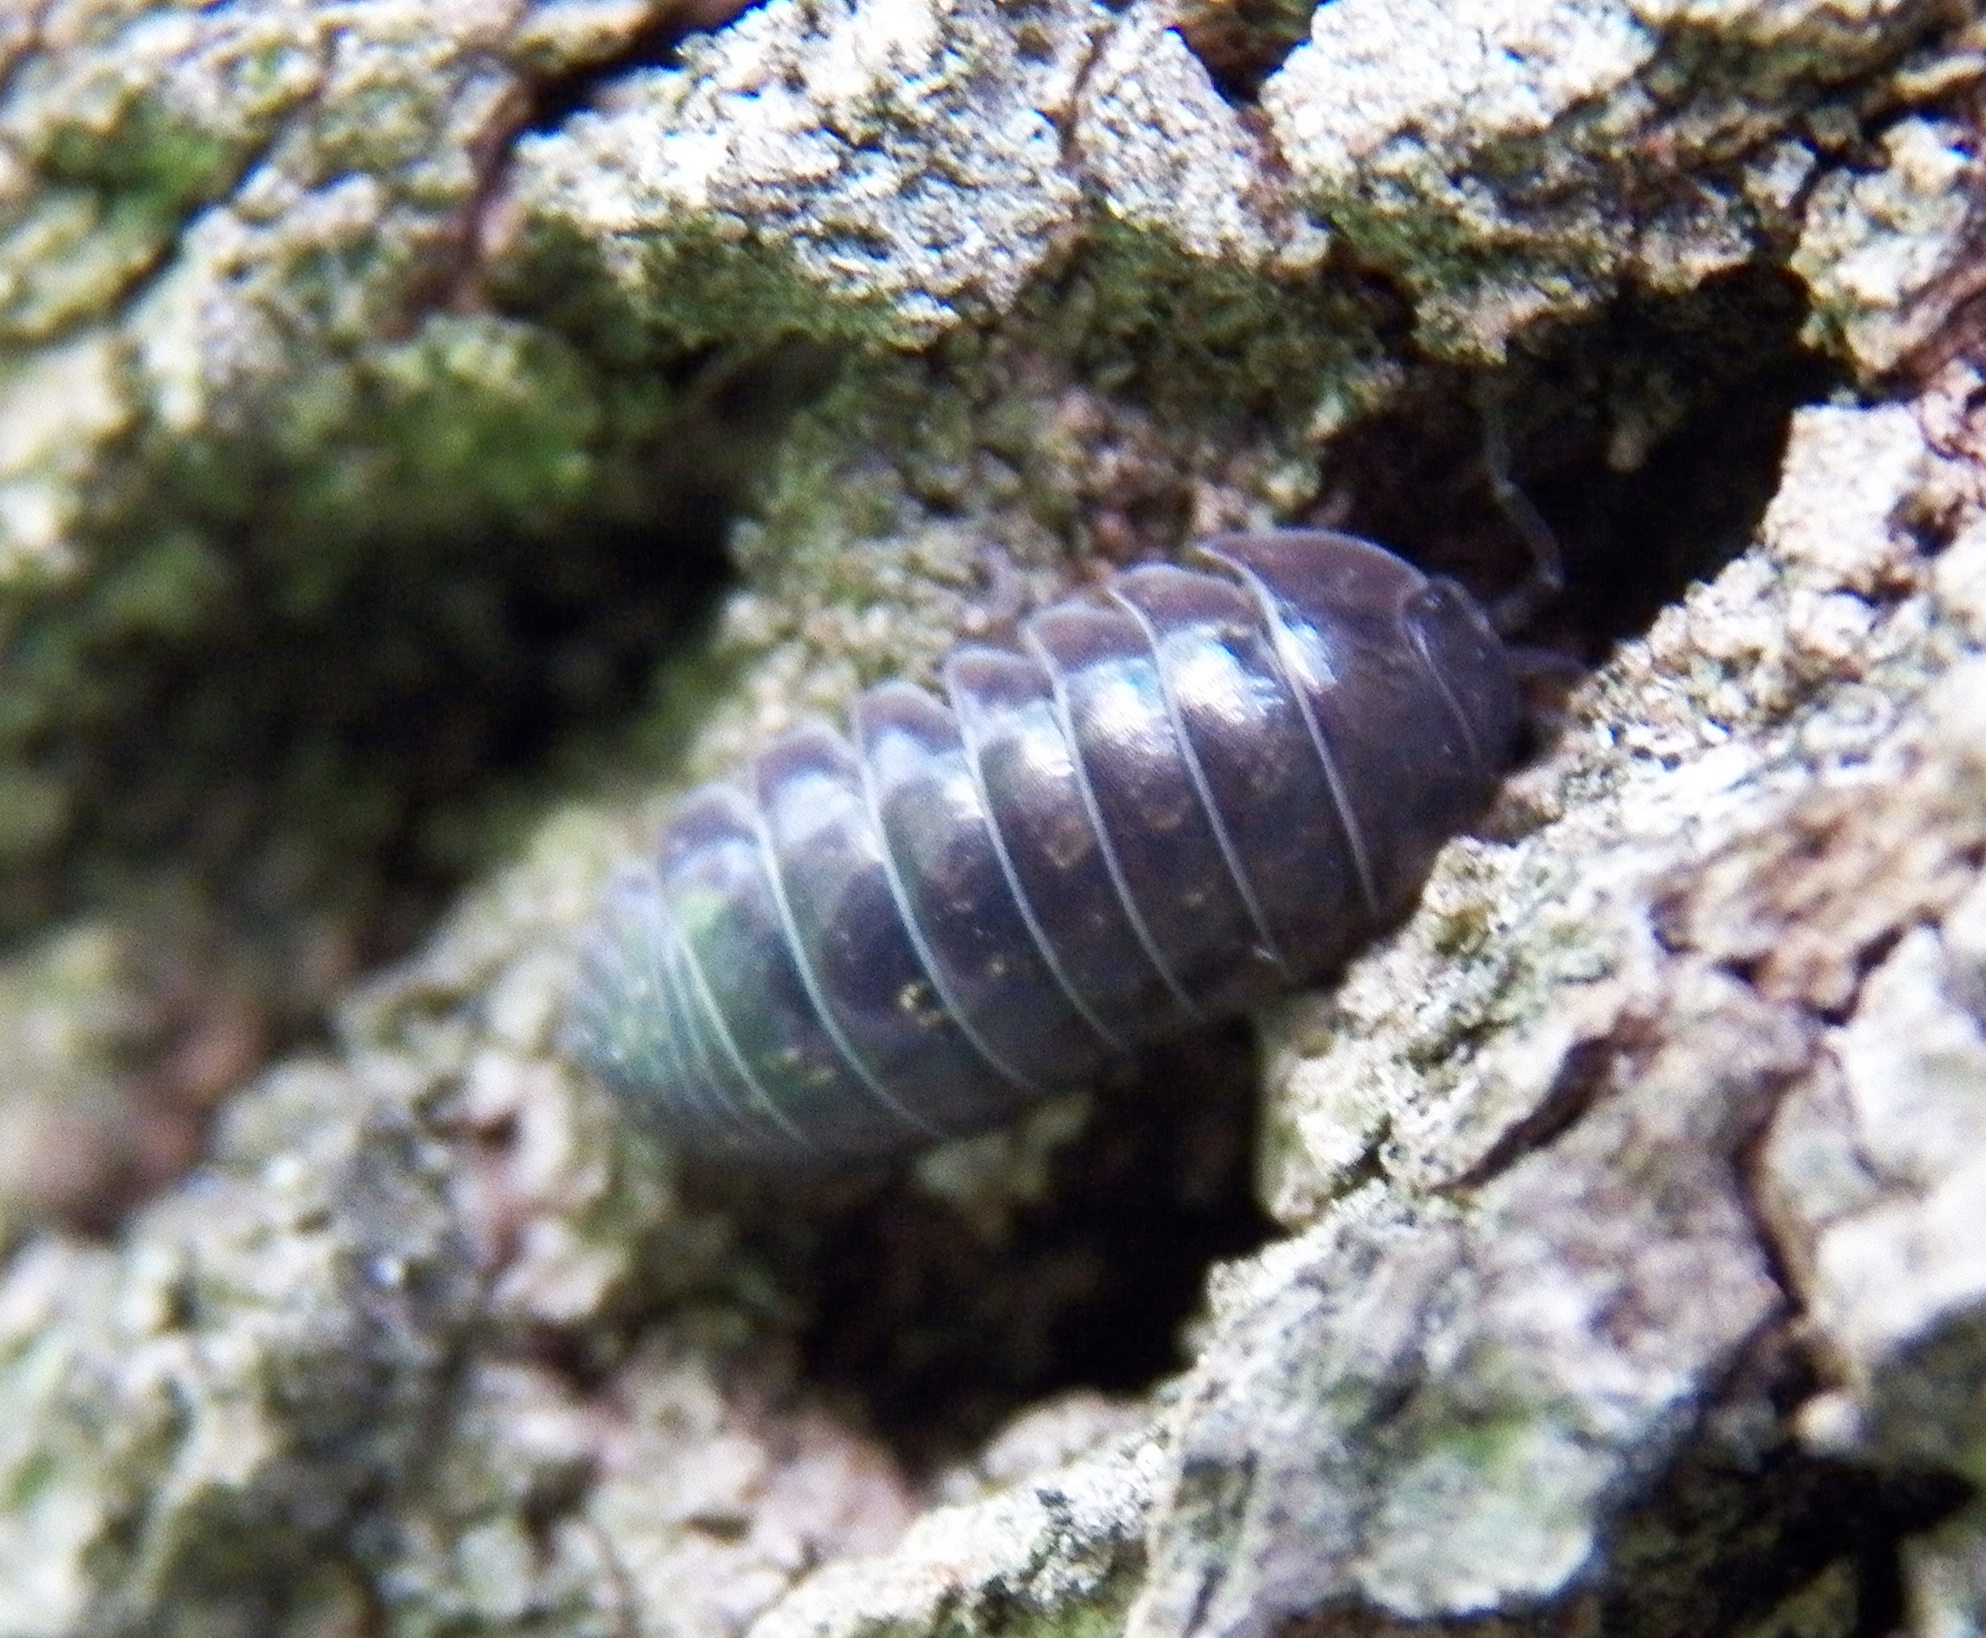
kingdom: Animalia
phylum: Arthropoda
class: Malacostraca
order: Isopoda
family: Armadillidiidae
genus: Armadillidium
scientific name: Armadillidium vulgare
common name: Common pill woodlouse
